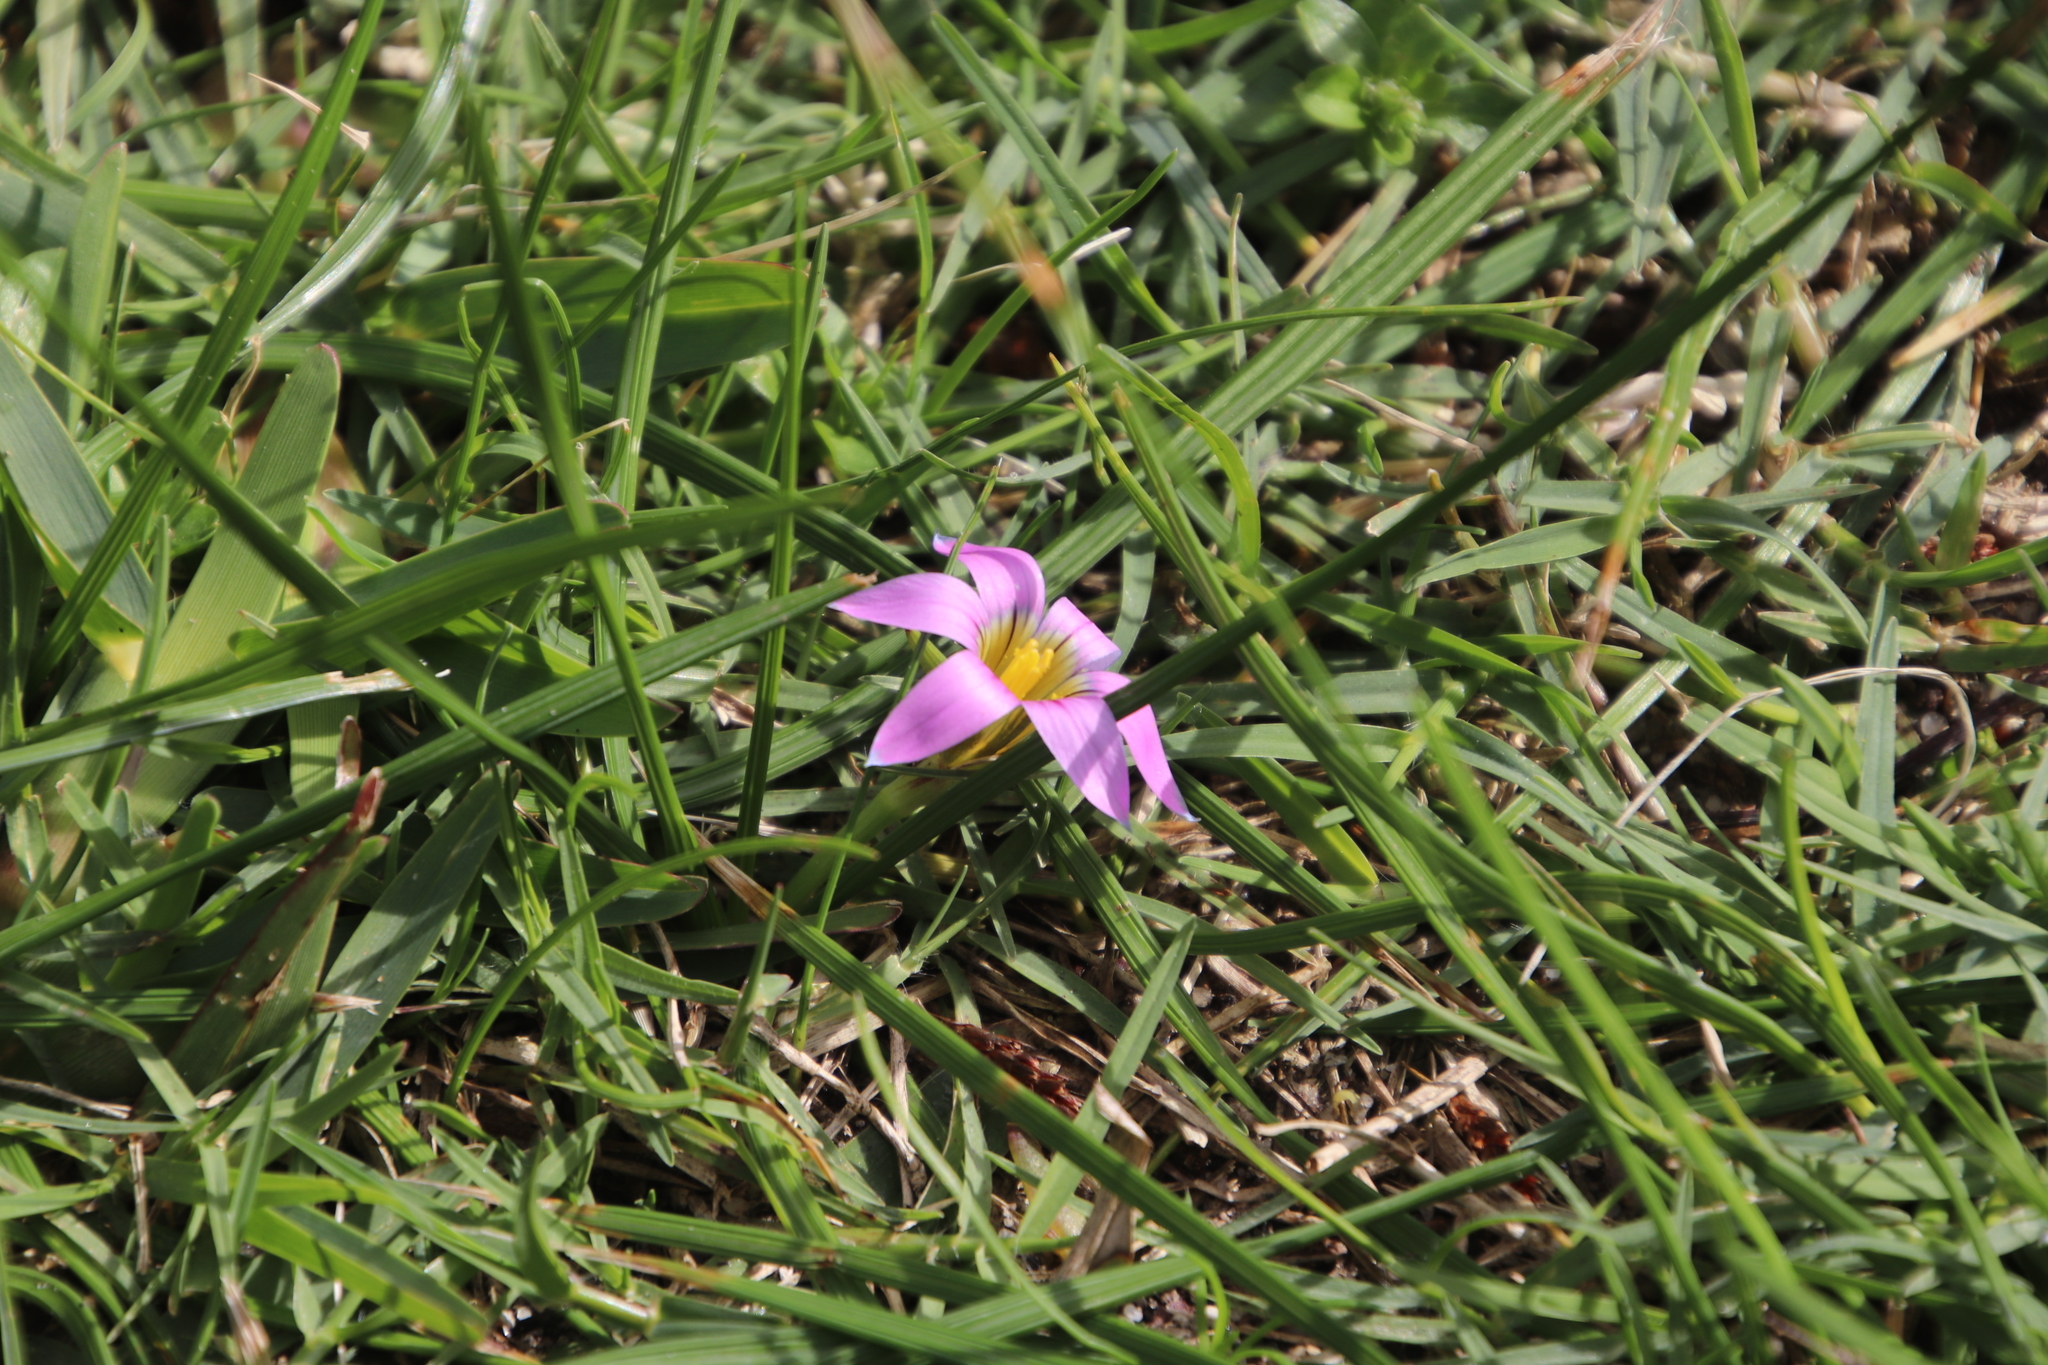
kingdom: Plantae
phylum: Tracheophyta
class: Liliopsida
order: Asparagales
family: Iridaceae
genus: Romulea
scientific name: Romulea rosea
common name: Oniongrass
